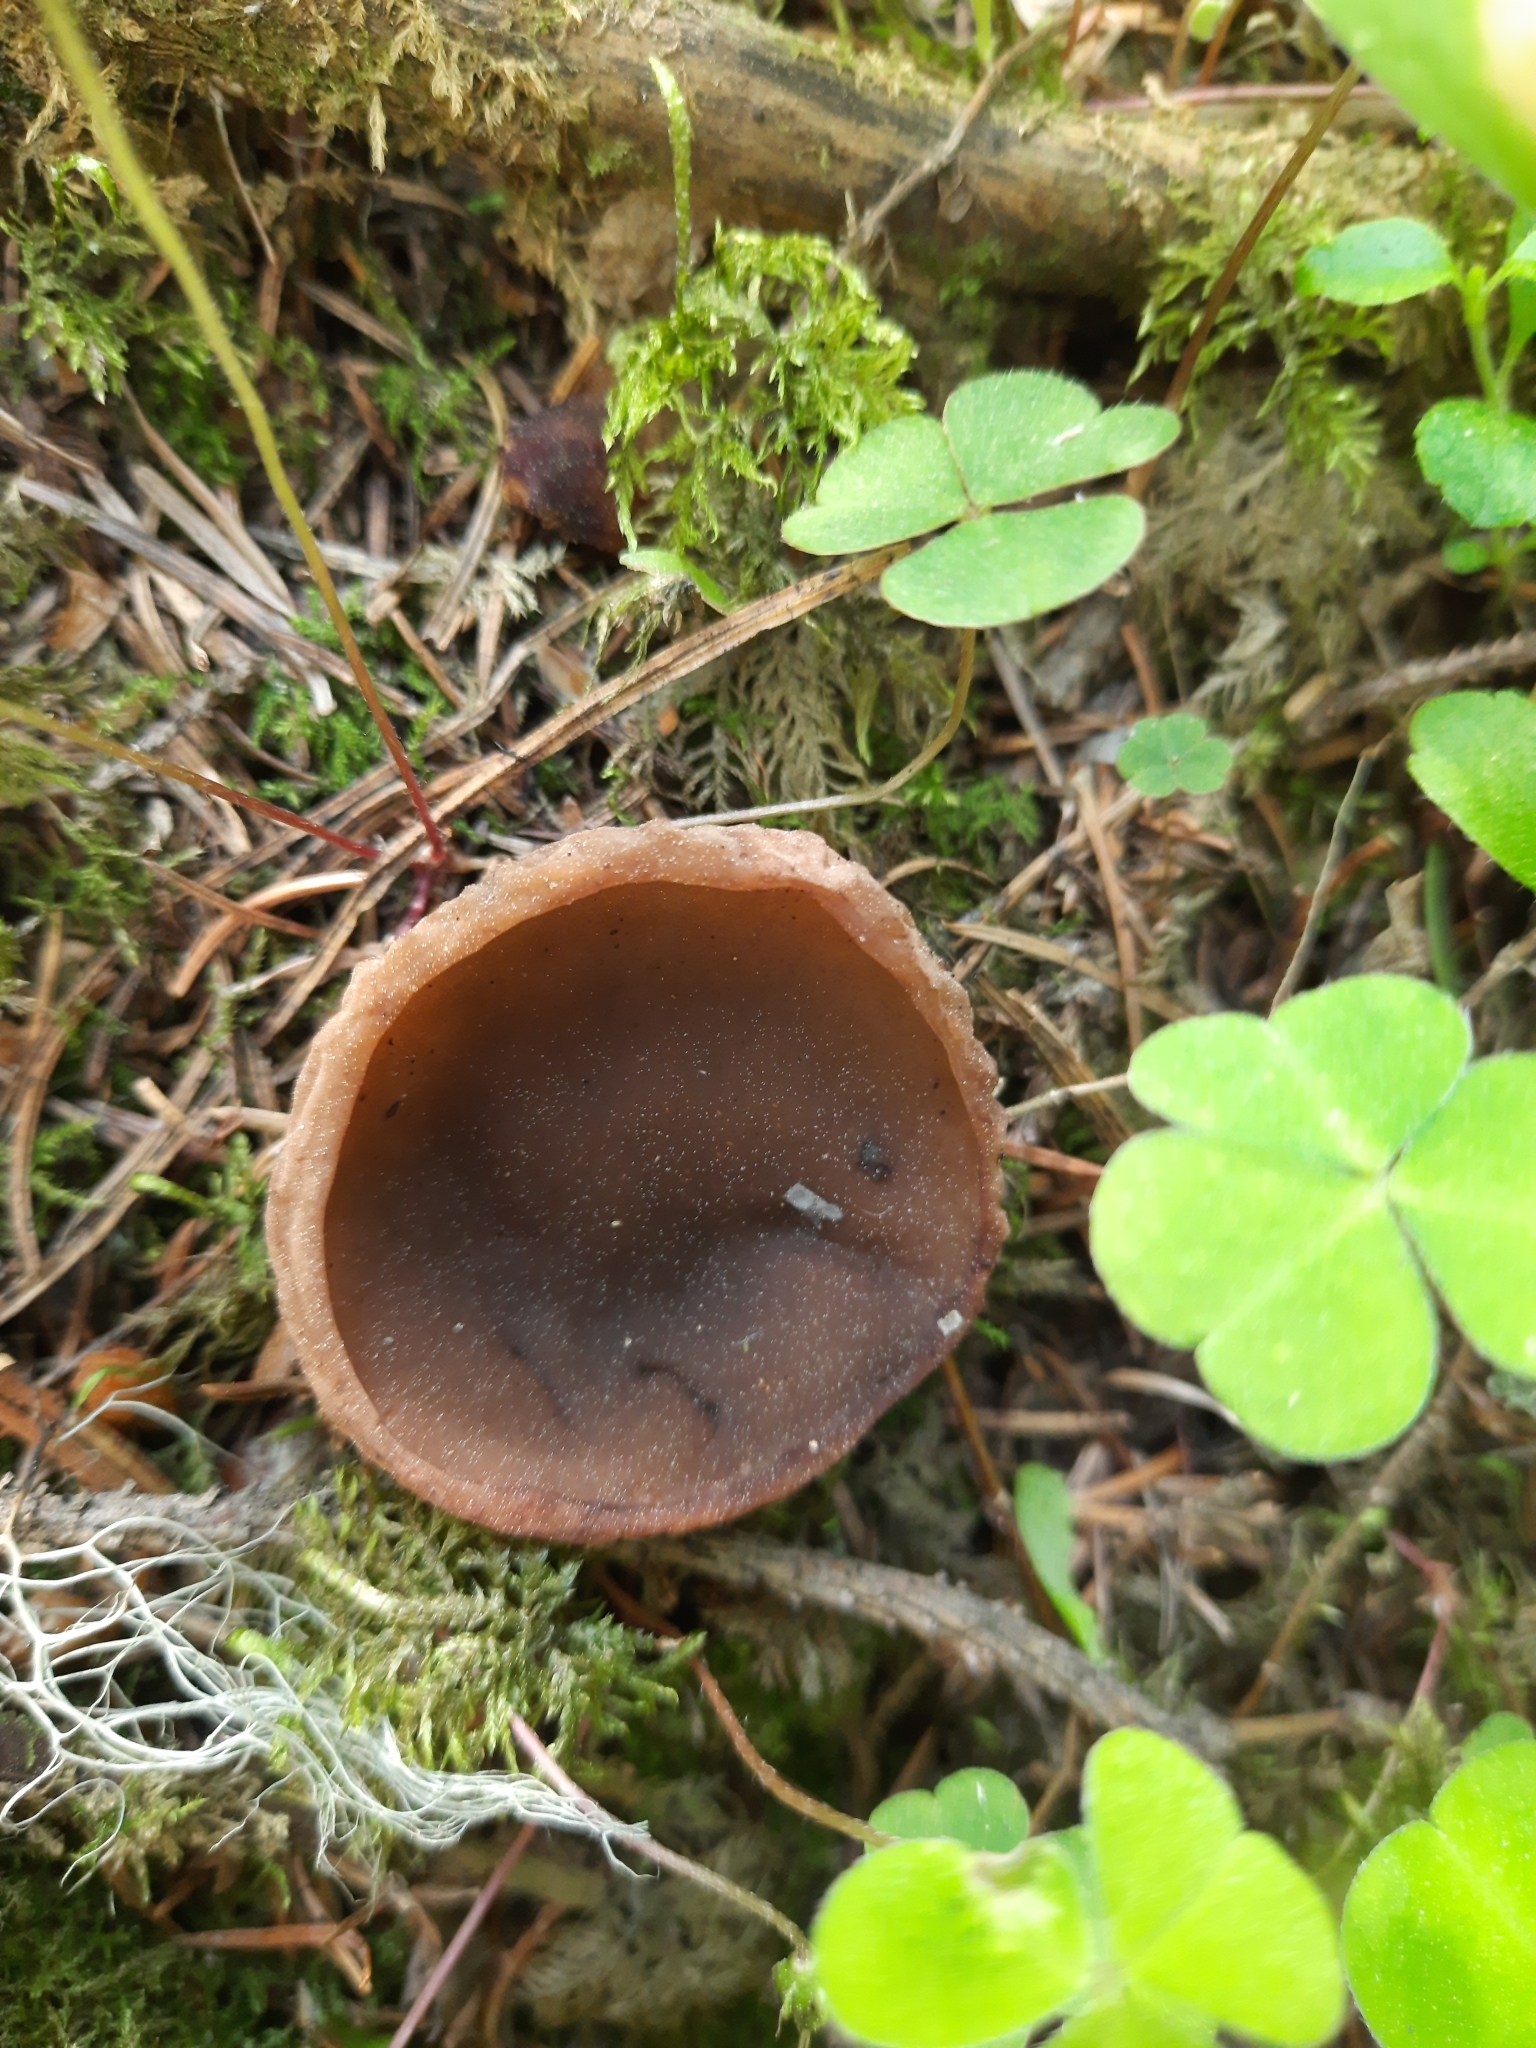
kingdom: Fungi
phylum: Ascomycota
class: Pezizomycetes
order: Pezizales
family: Sarcosomataceae
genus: Sarcosoma
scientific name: Sarcosoma globosum
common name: Charred-pancake cup
